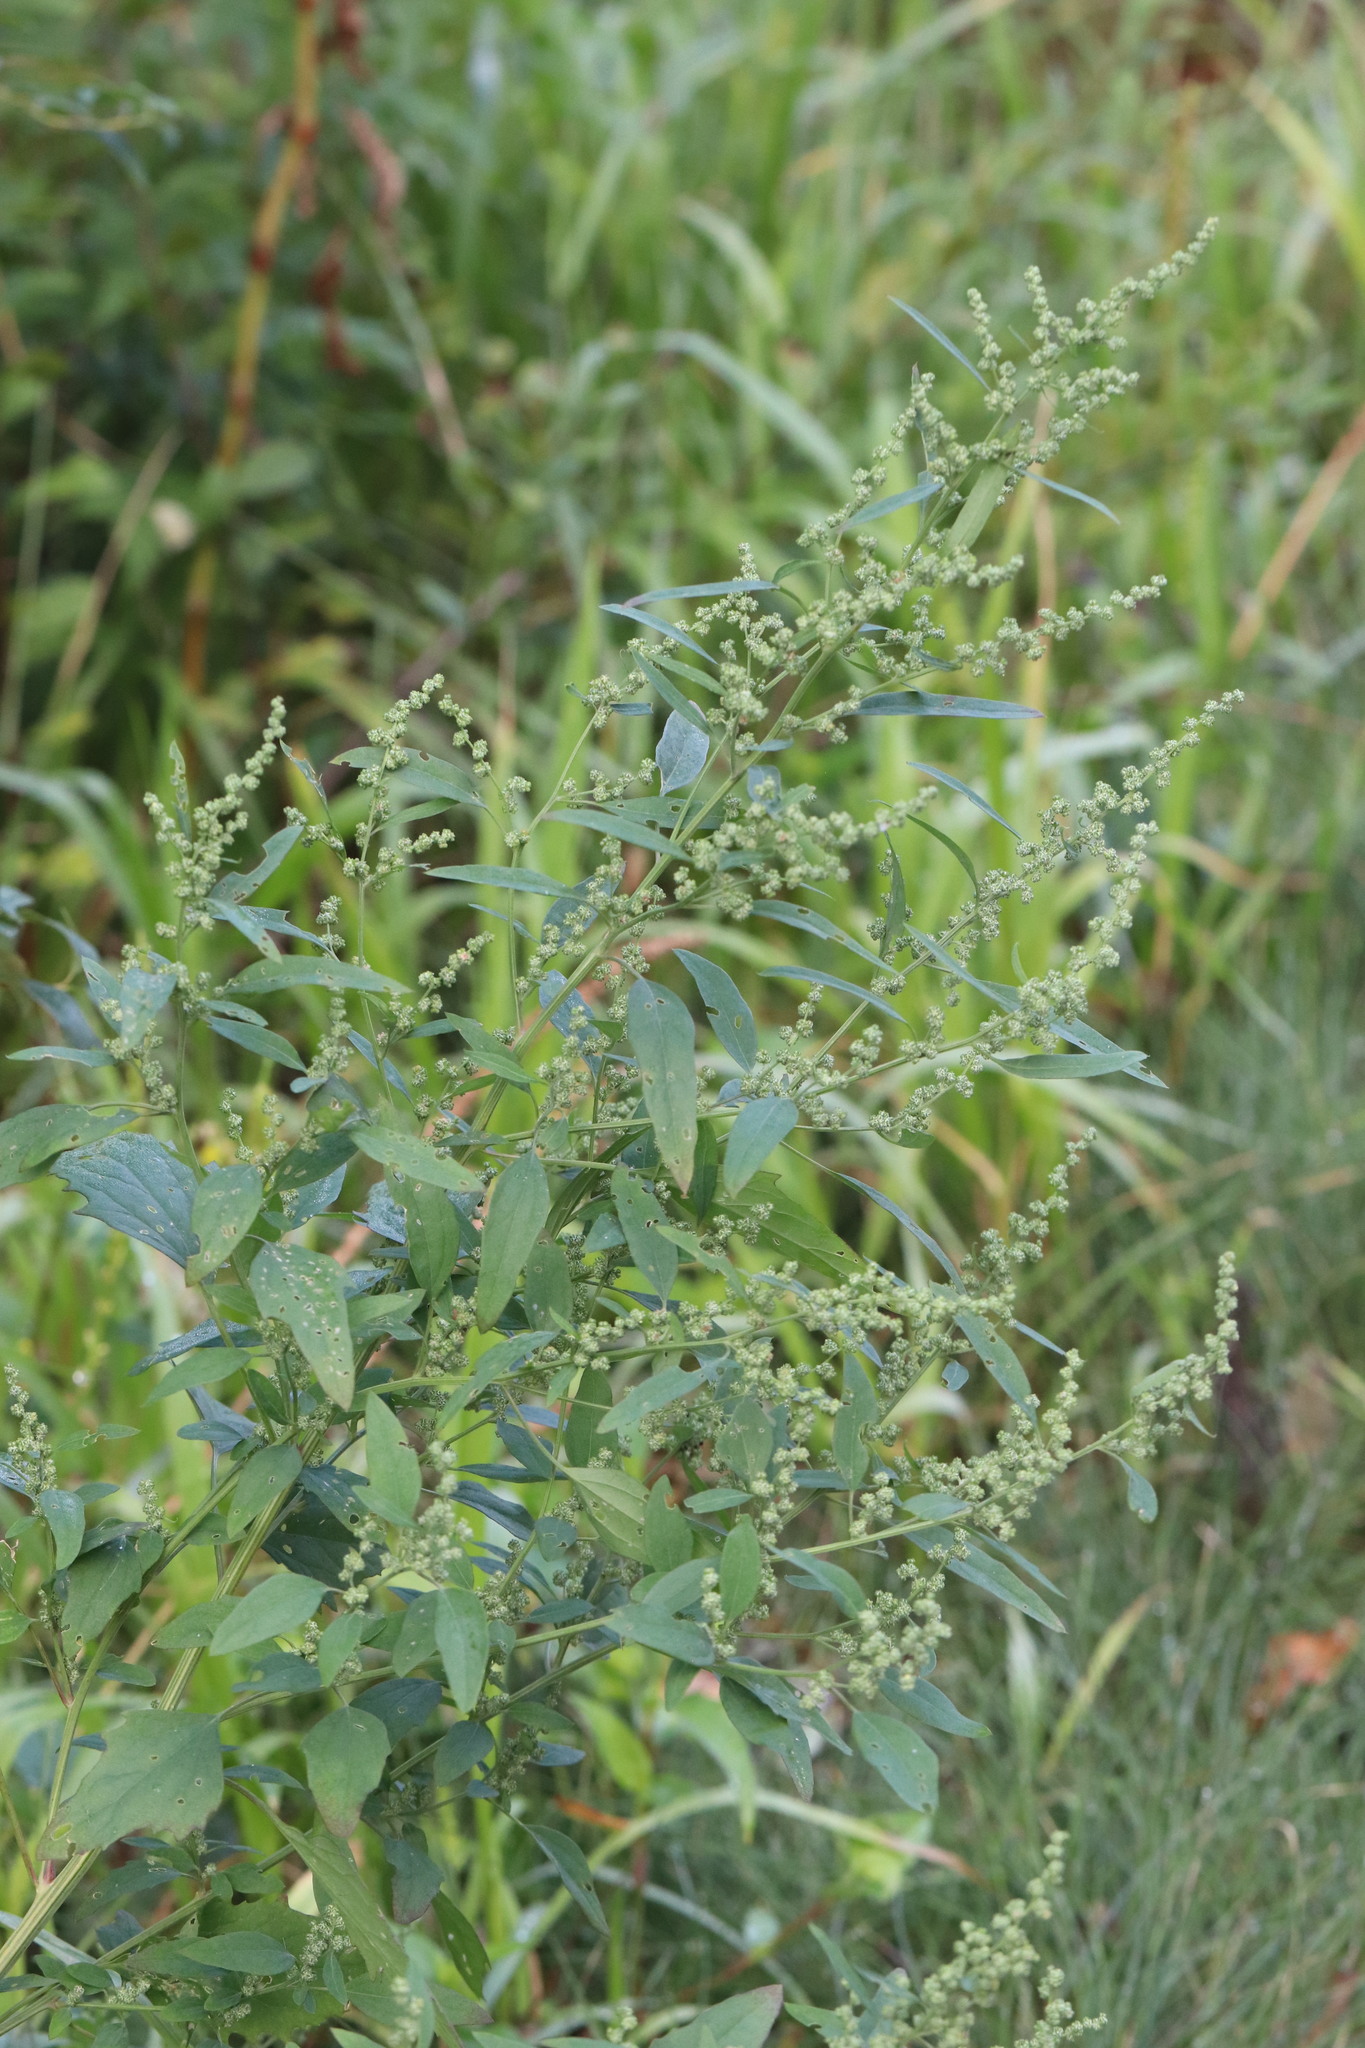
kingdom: Plantae
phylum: Tracheophyta
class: Magnoliopsida
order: Caryophyllales
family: Amaranthaceae
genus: Chenopodium
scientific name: Chenopodium album
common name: Fat-hen
